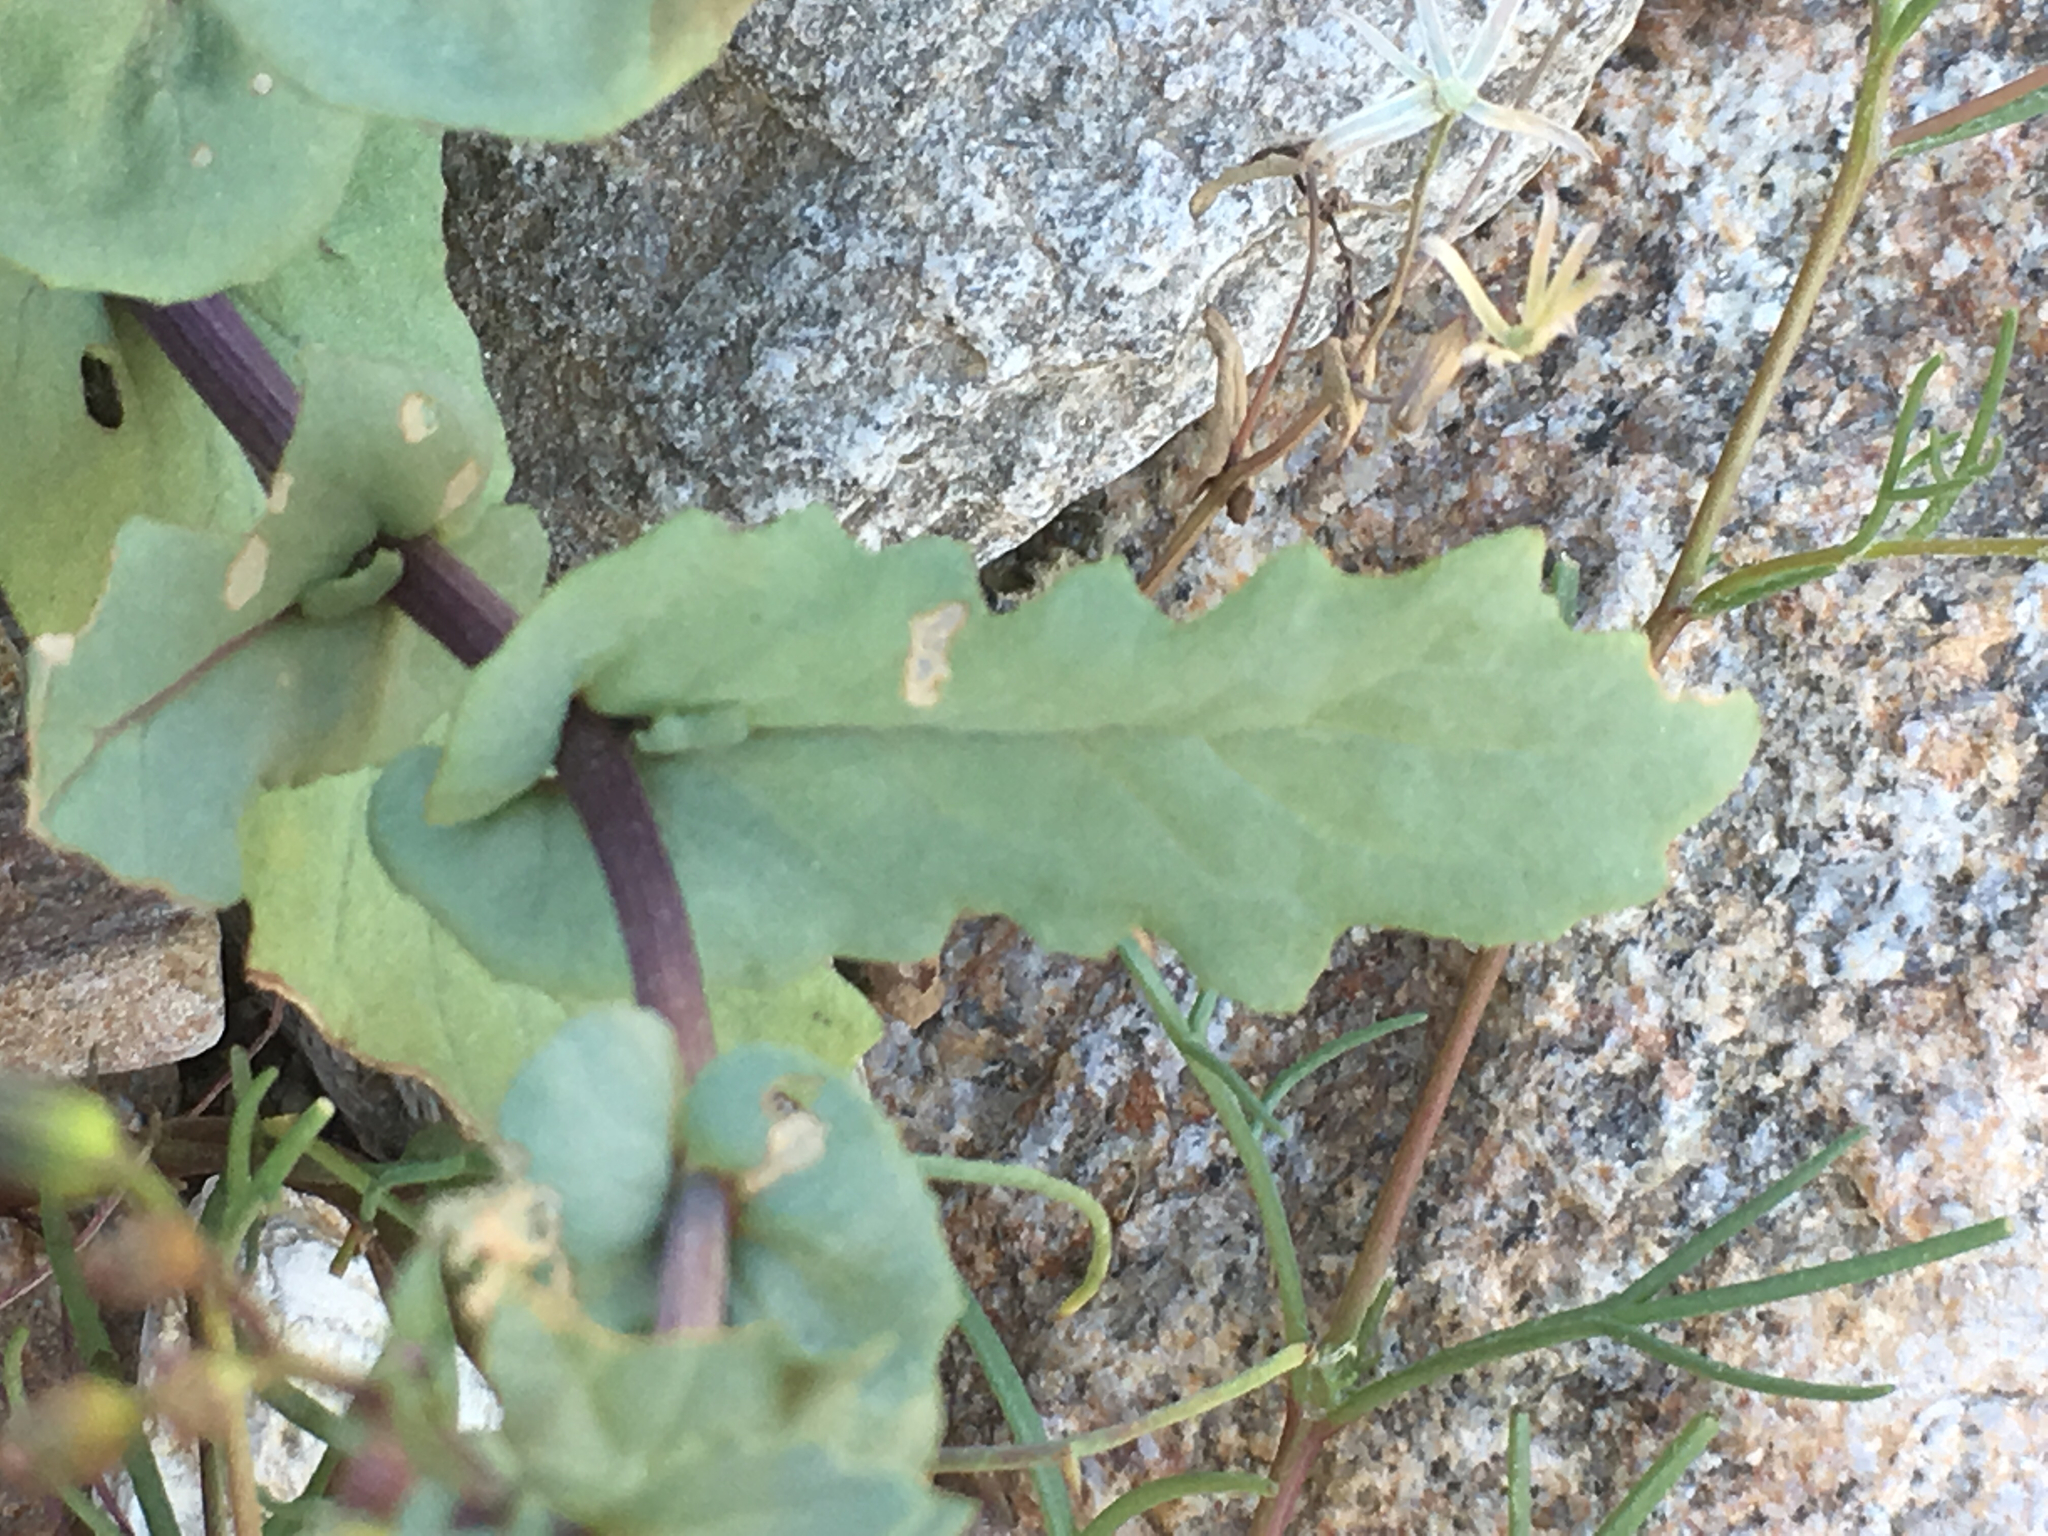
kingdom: Plantae
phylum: Tracheophyta
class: Magnoliopsida
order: Asterales
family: Asteraceae
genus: Senecio
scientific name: Senecio mohavensis
